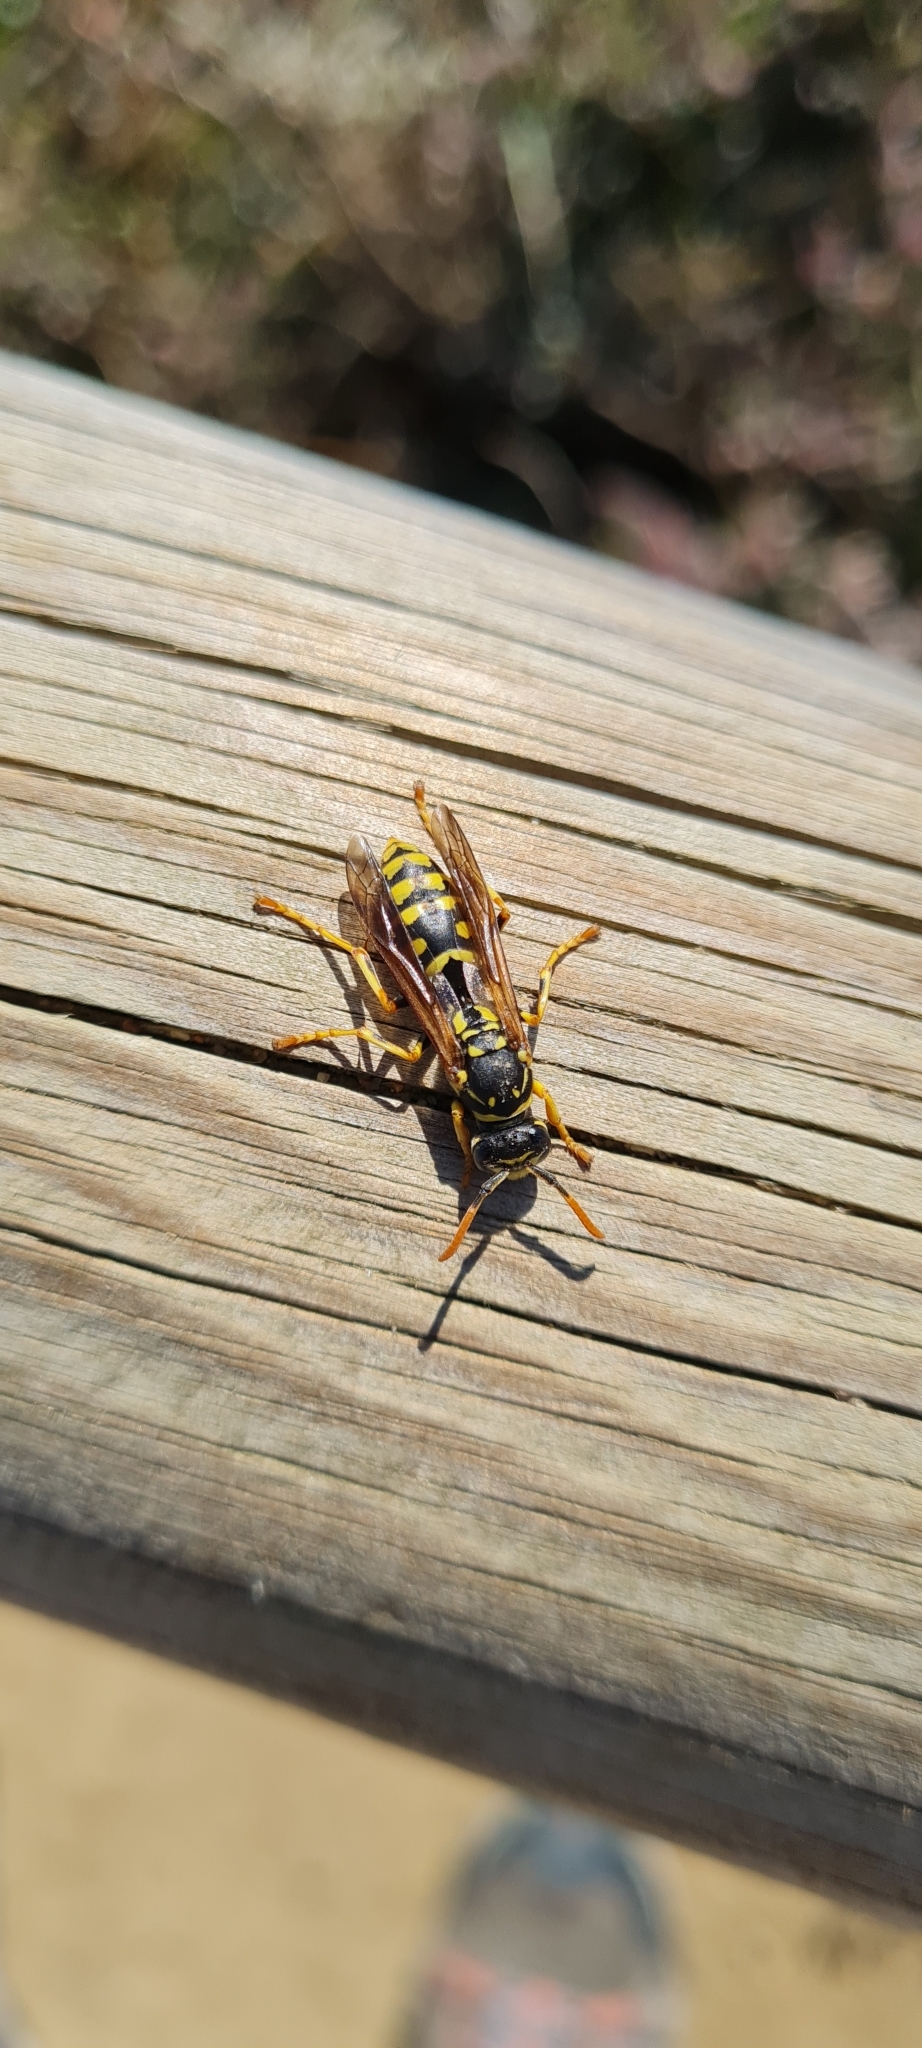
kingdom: Animalia
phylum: Arthropoda
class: Insecta
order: Hymenoptera
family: Eumenidae
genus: Polistes
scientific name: Polistes dominula
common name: Paper wasp
